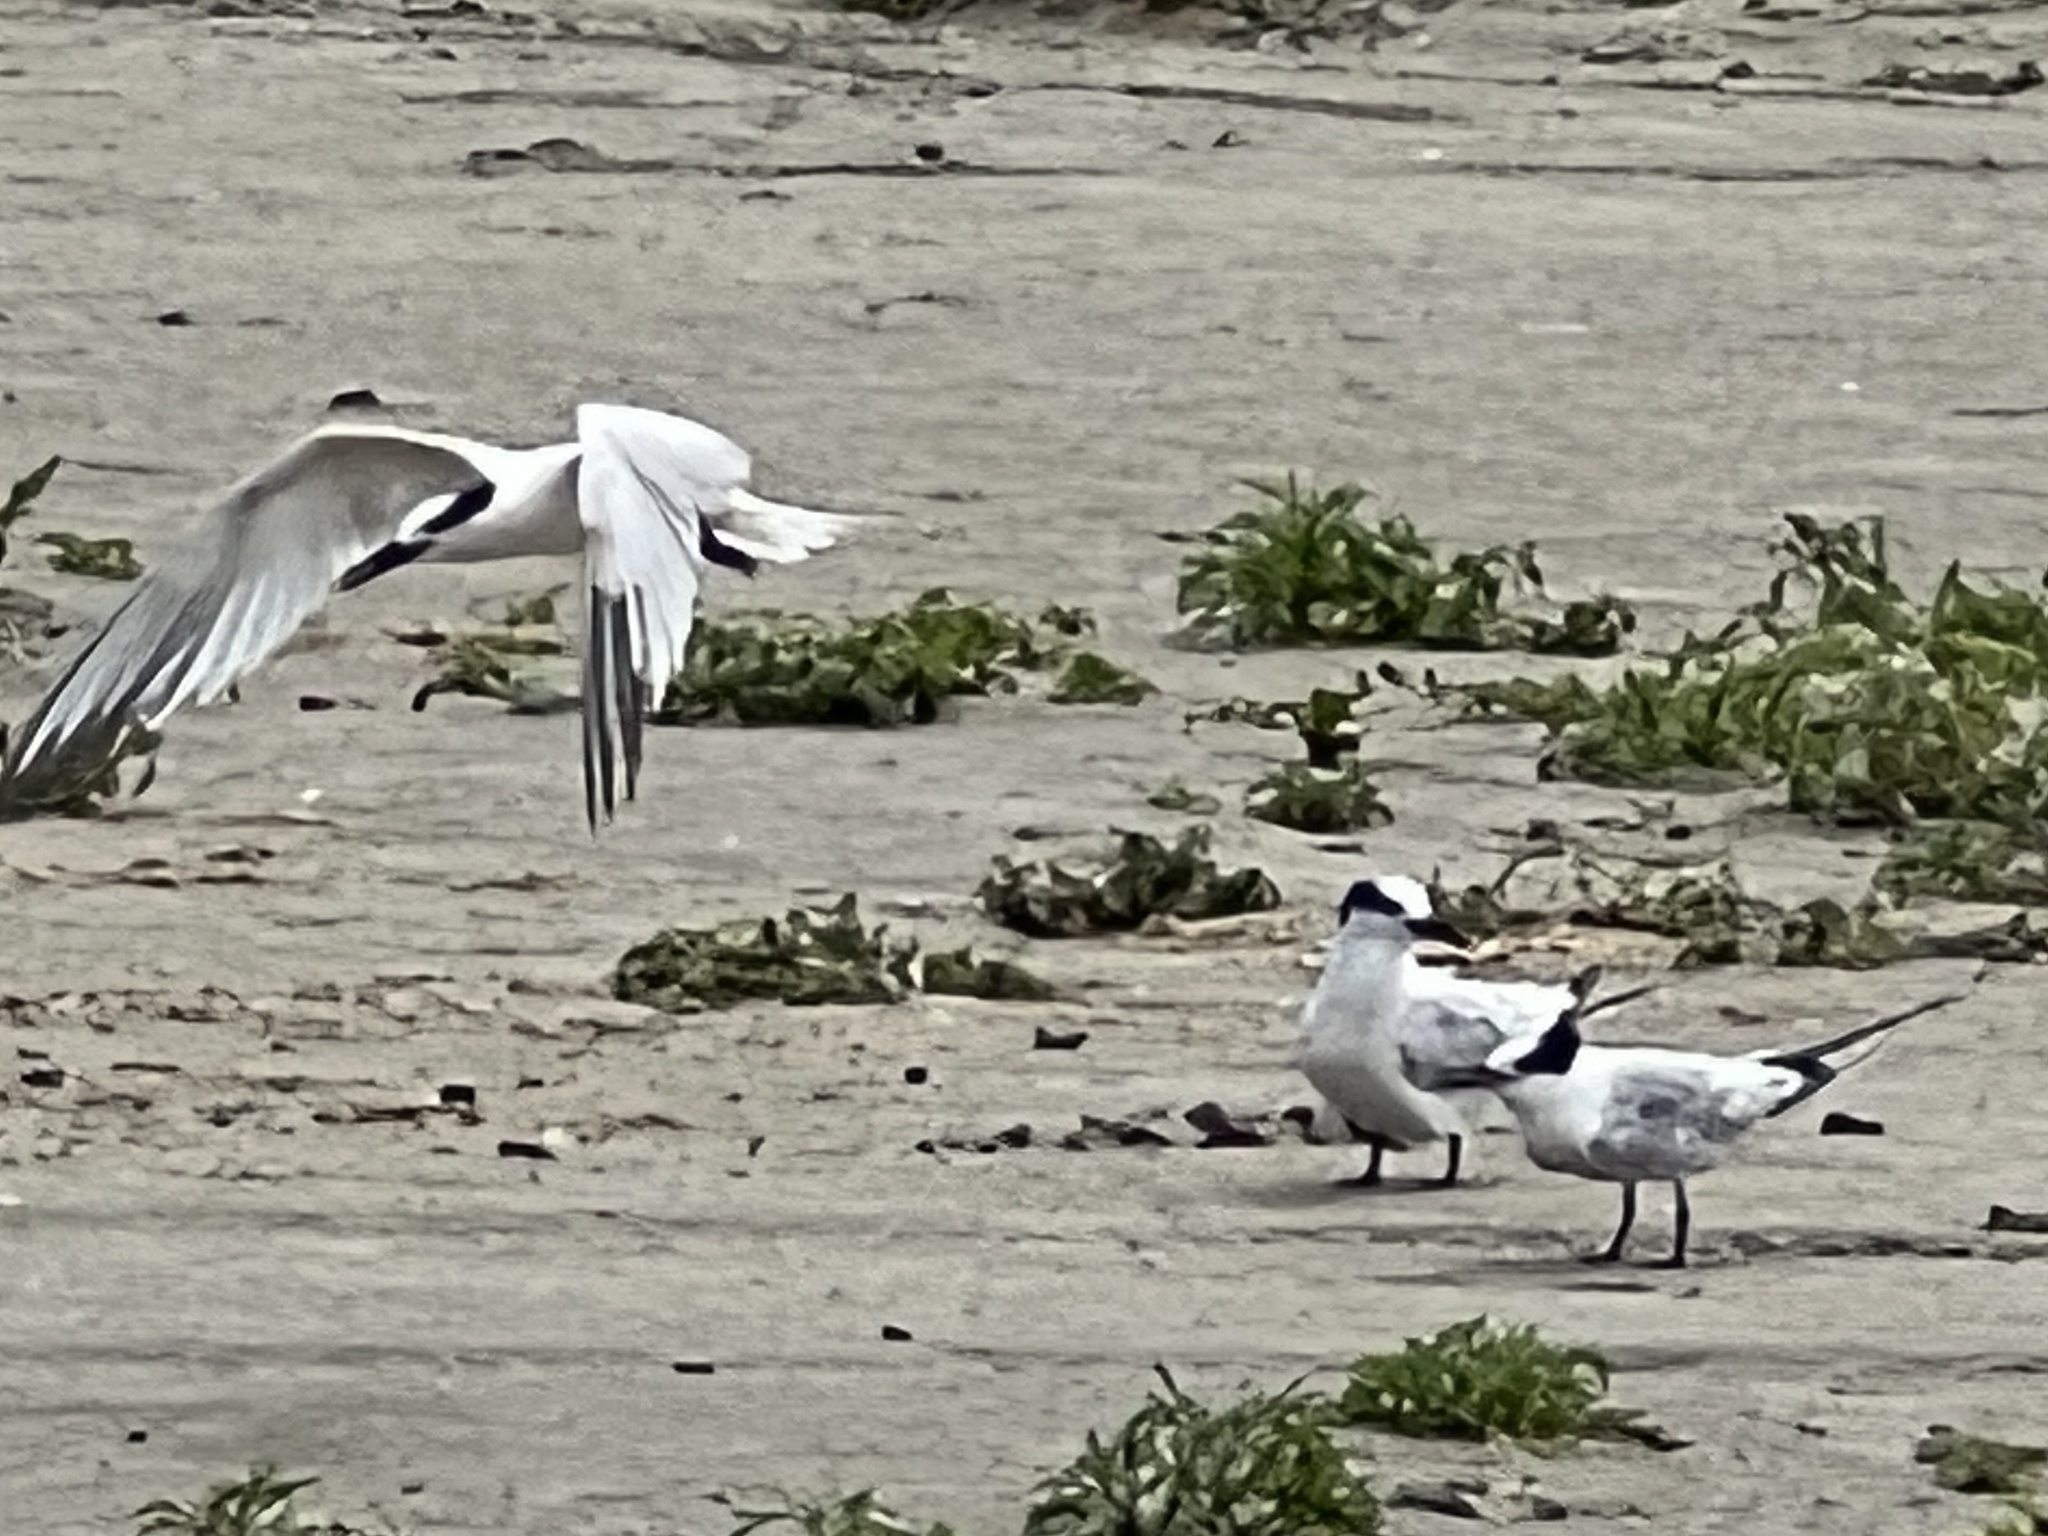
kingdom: Animalia
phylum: Chordata
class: Aves
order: Charadriiformes
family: Laridae
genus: Thalasseus
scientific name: Thalasseus sandvicensis
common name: Sandwich tern
